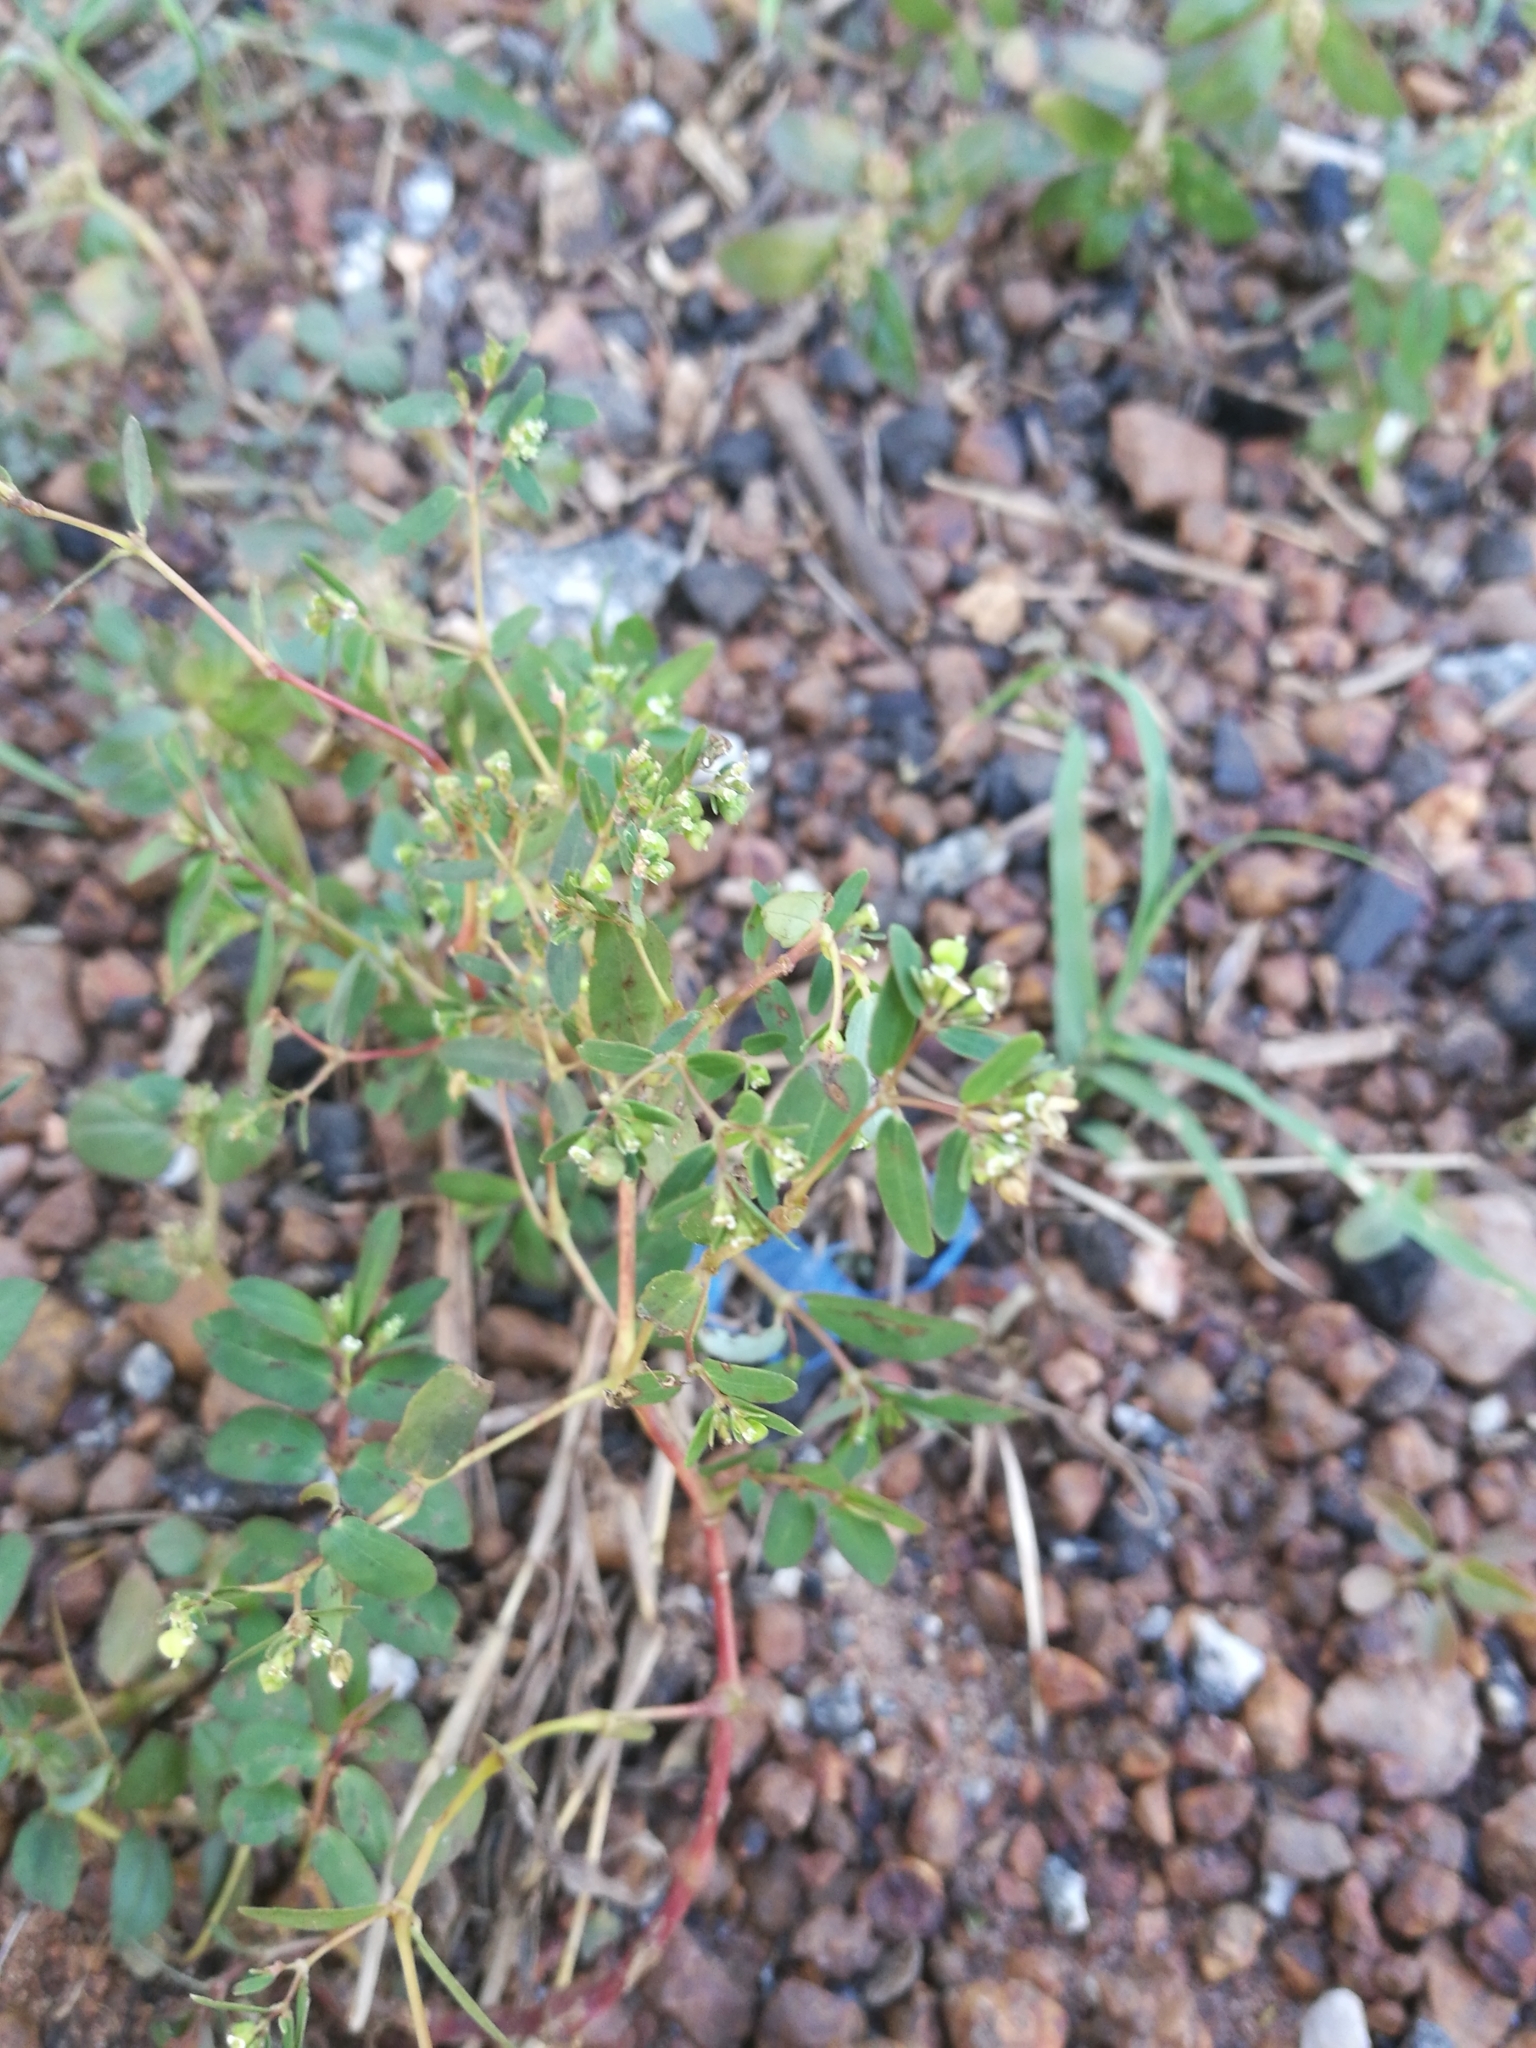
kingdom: Plantae
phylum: Tracheophyta
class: Magnoliopsida
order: Malpighiales
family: Euphorbiaceae
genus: Euphorbia
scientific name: Euphorbia hyssopifolia
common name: Hyssopleaf sandmat
